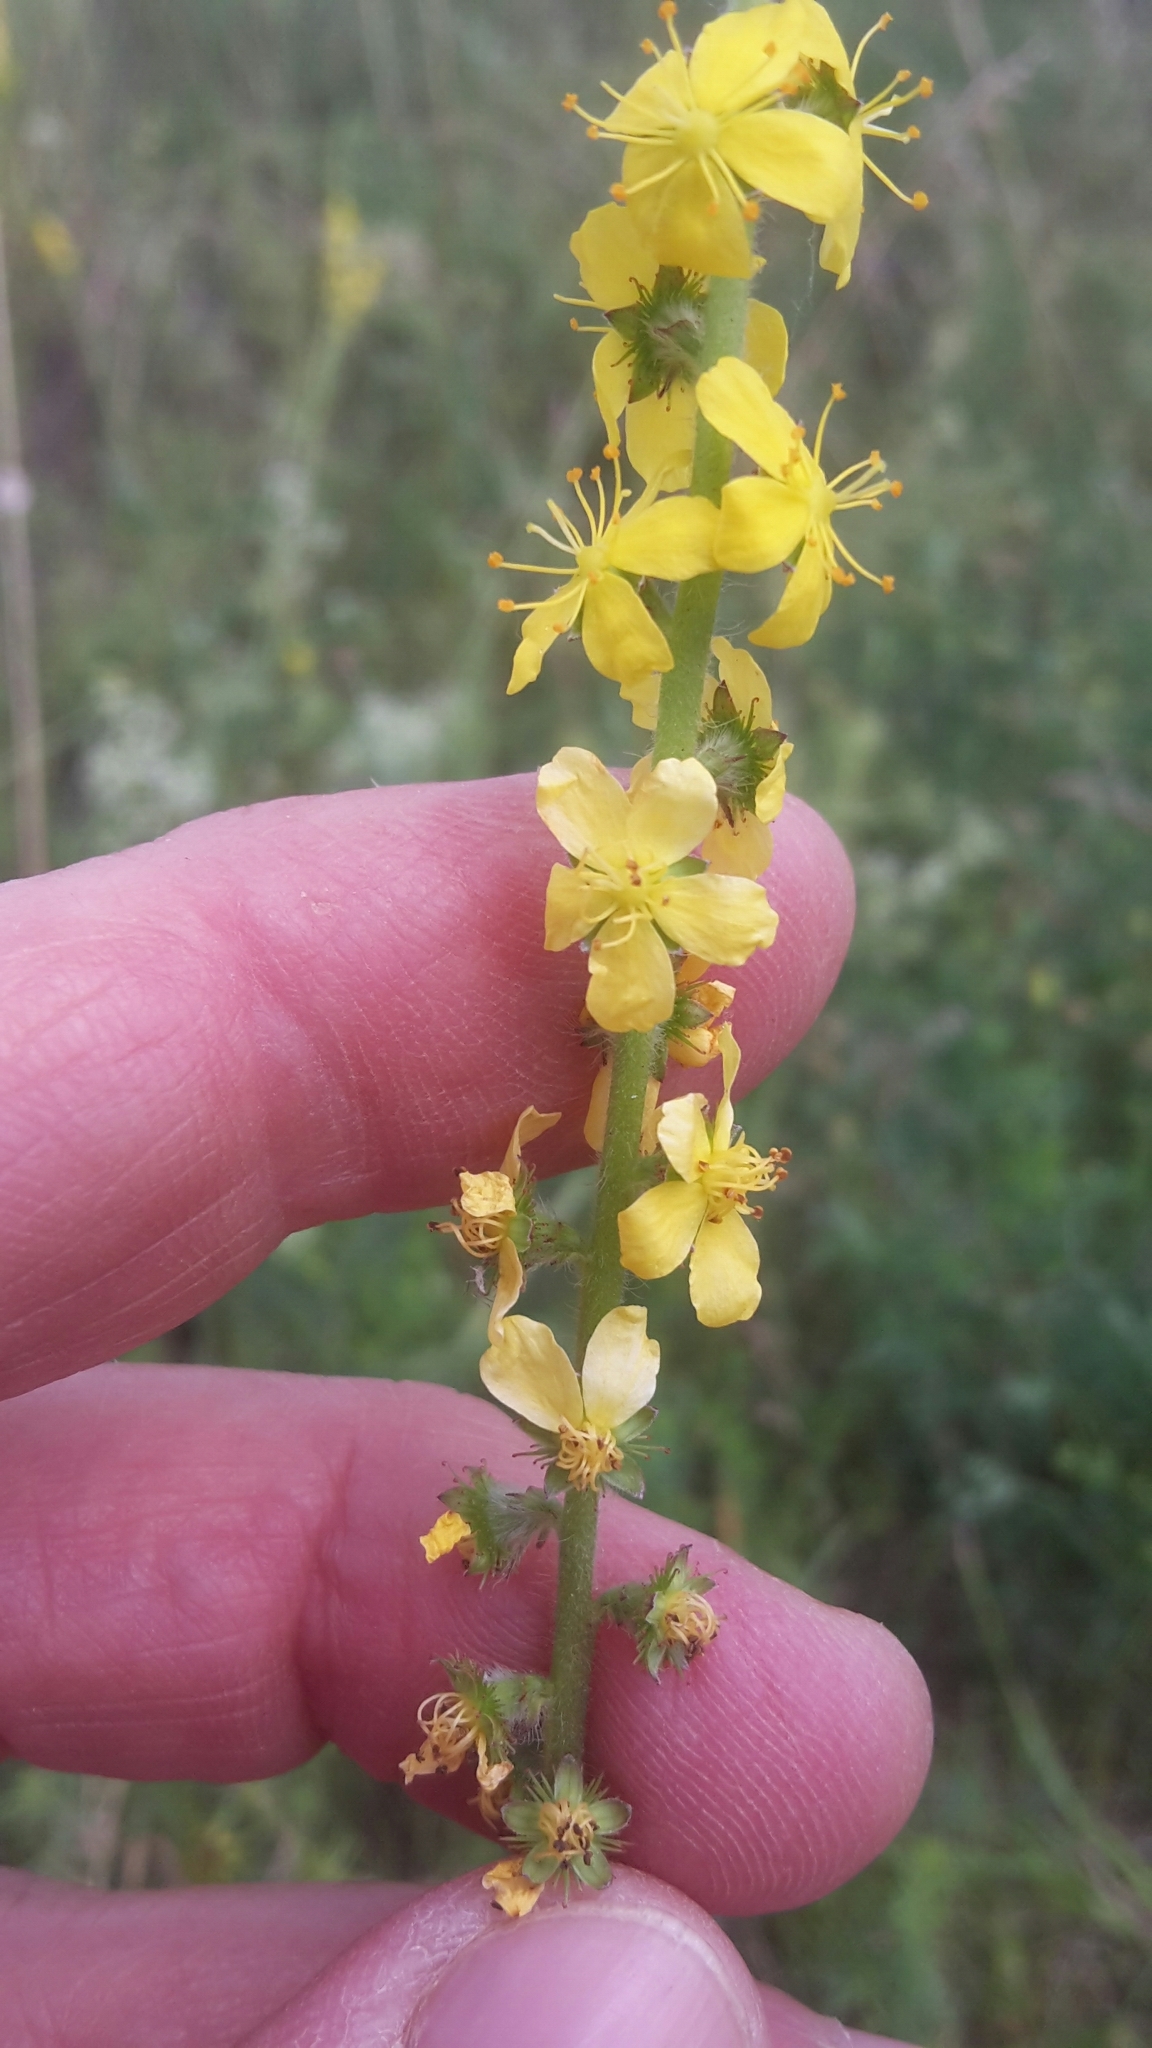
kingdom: Plantae
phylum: Tracheophyta
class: Magnoliopsida
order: Rosales
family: Rosaceae
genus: Agrimonia
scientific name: Agrimonia eupatoria
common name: Agrimony
